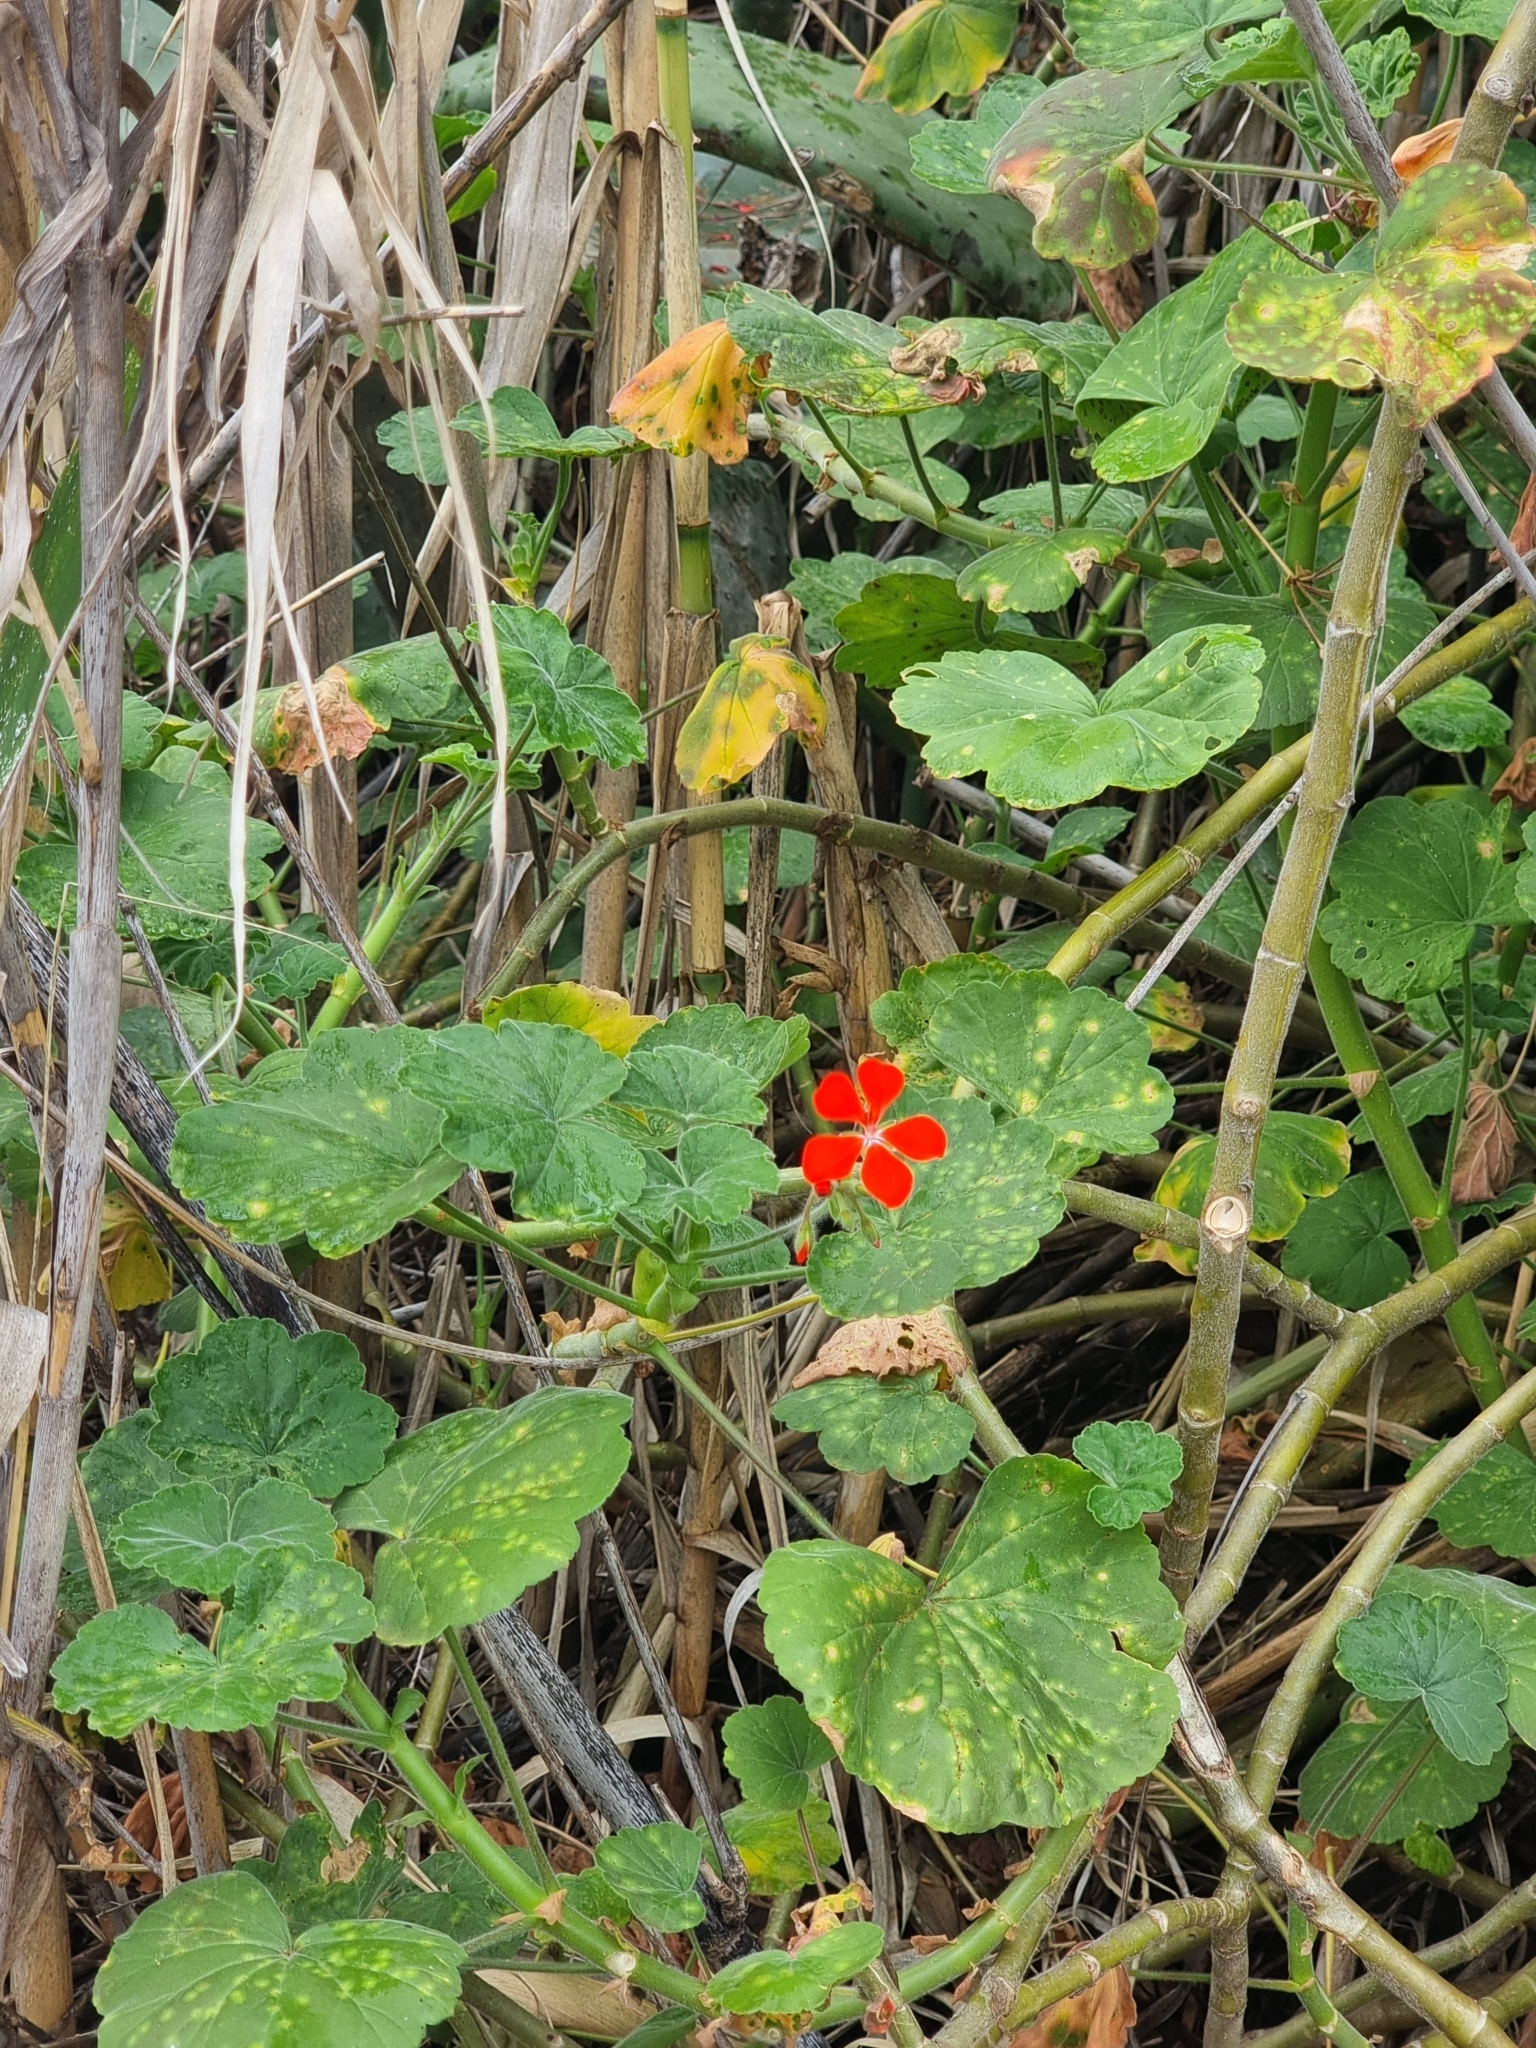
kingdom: Plantae
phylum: Tracheophyta
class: Magnoliopsida
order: Geraniales
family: Geraniaceae
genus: Pelargonium
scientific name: Pelargonium hybridum
